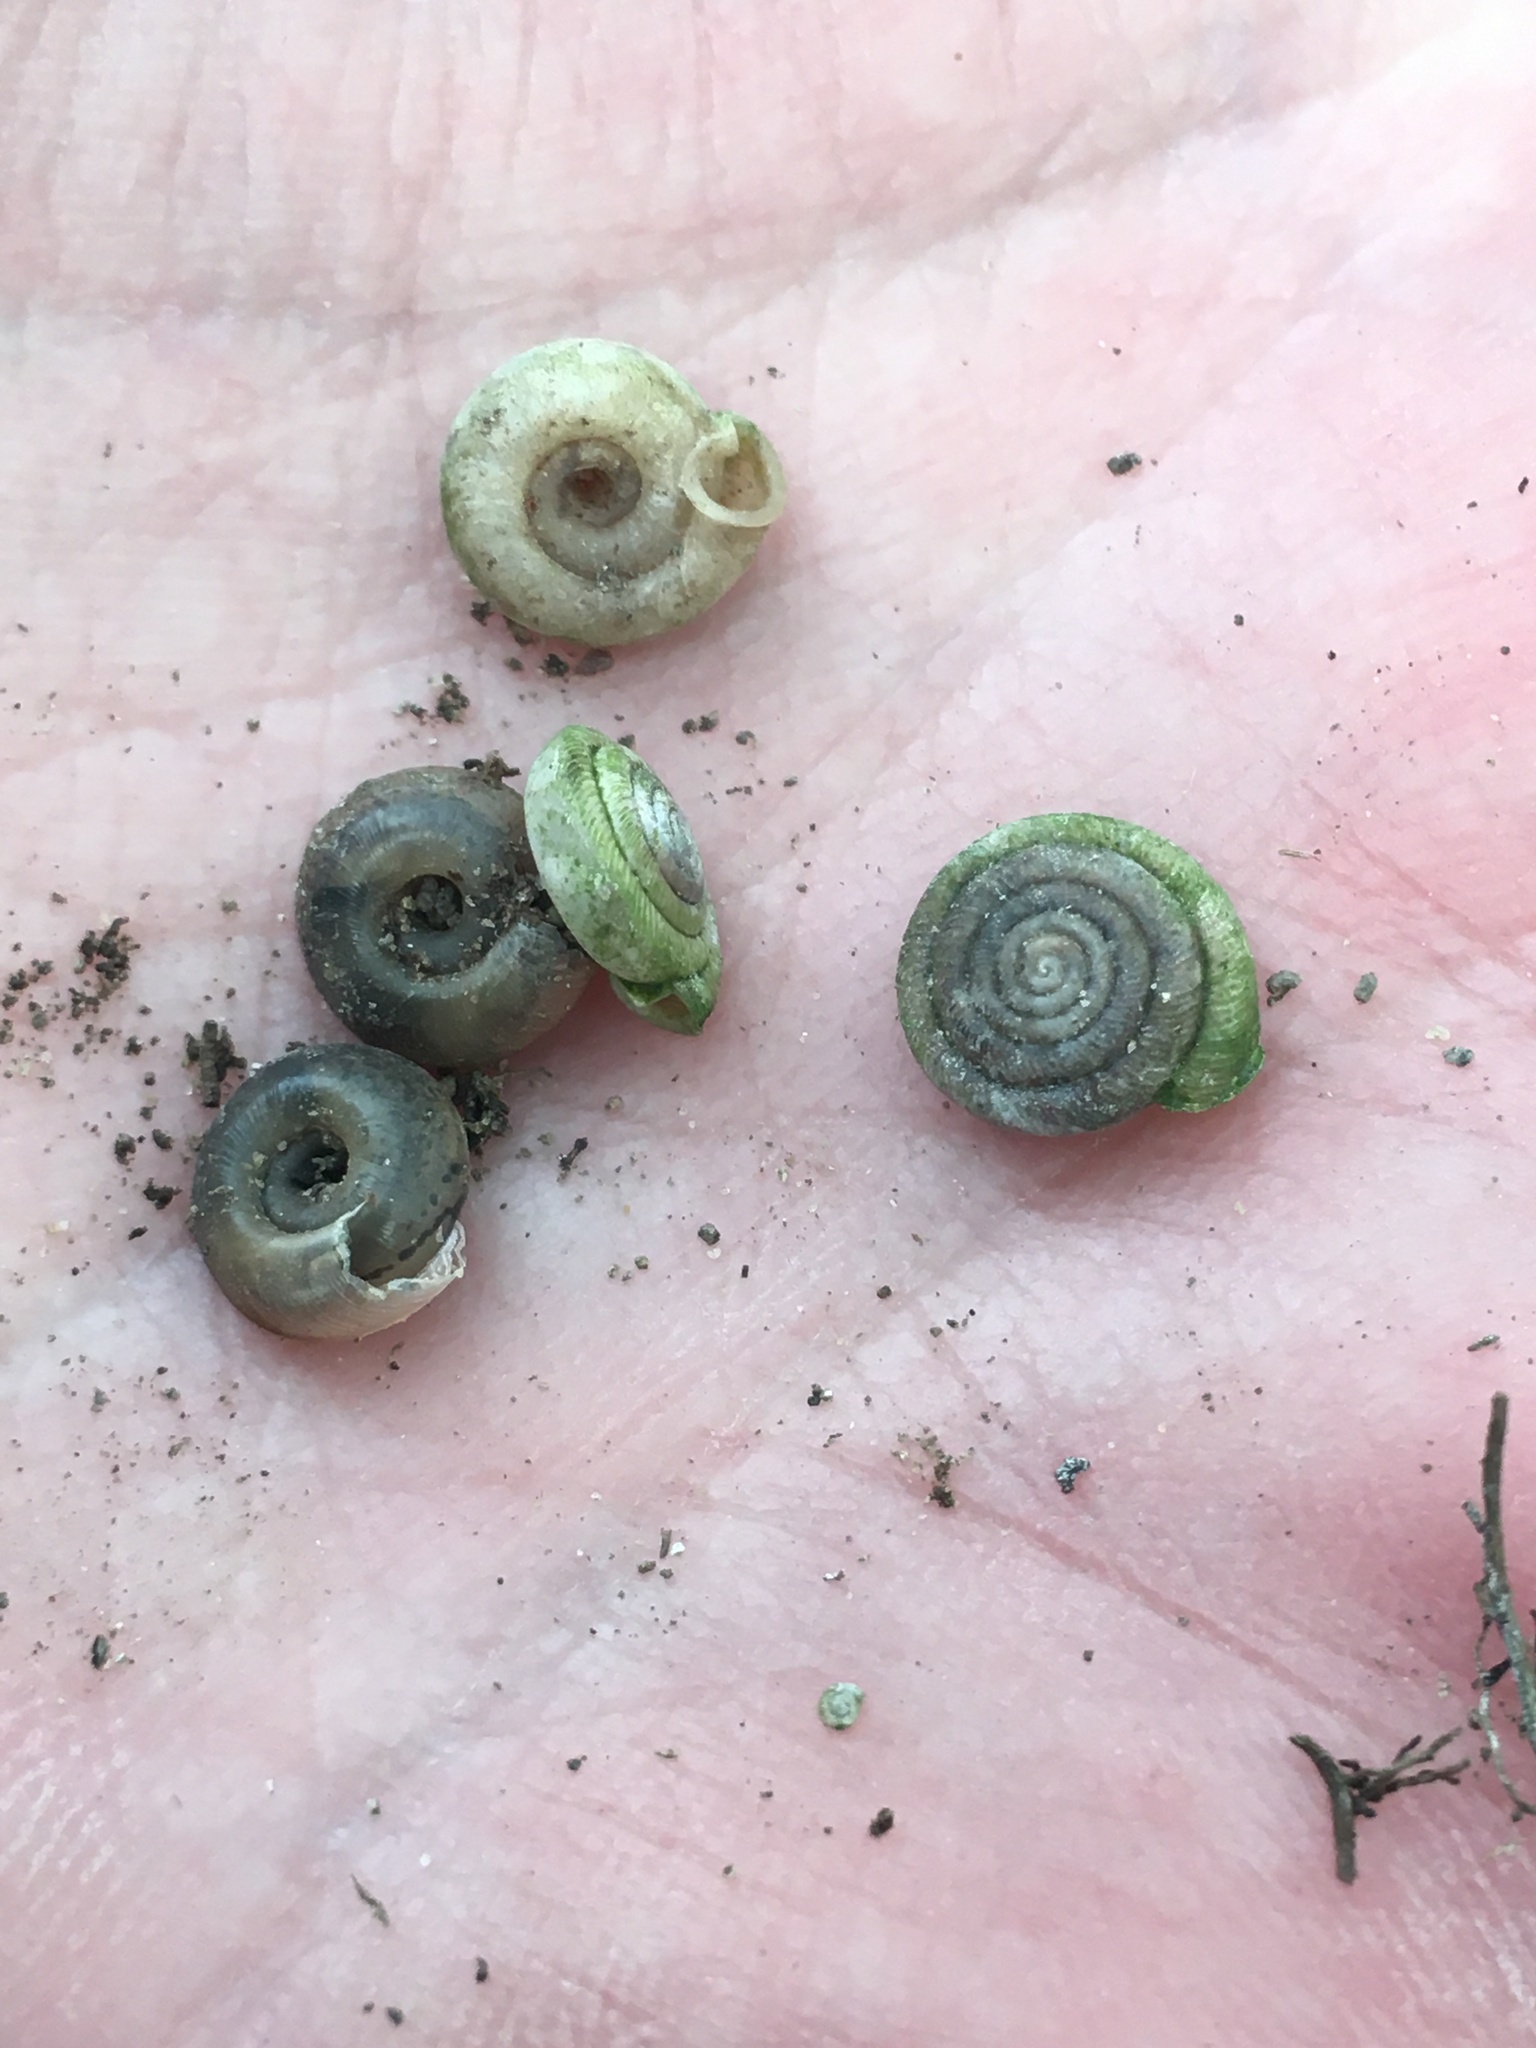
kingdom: Animalia
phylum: Mollusca
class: Gastropoda
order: Stylommatophora
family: Polygyridae
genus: Polygyra
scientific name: Polygyra cereolus
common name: Southern flatcone snail
